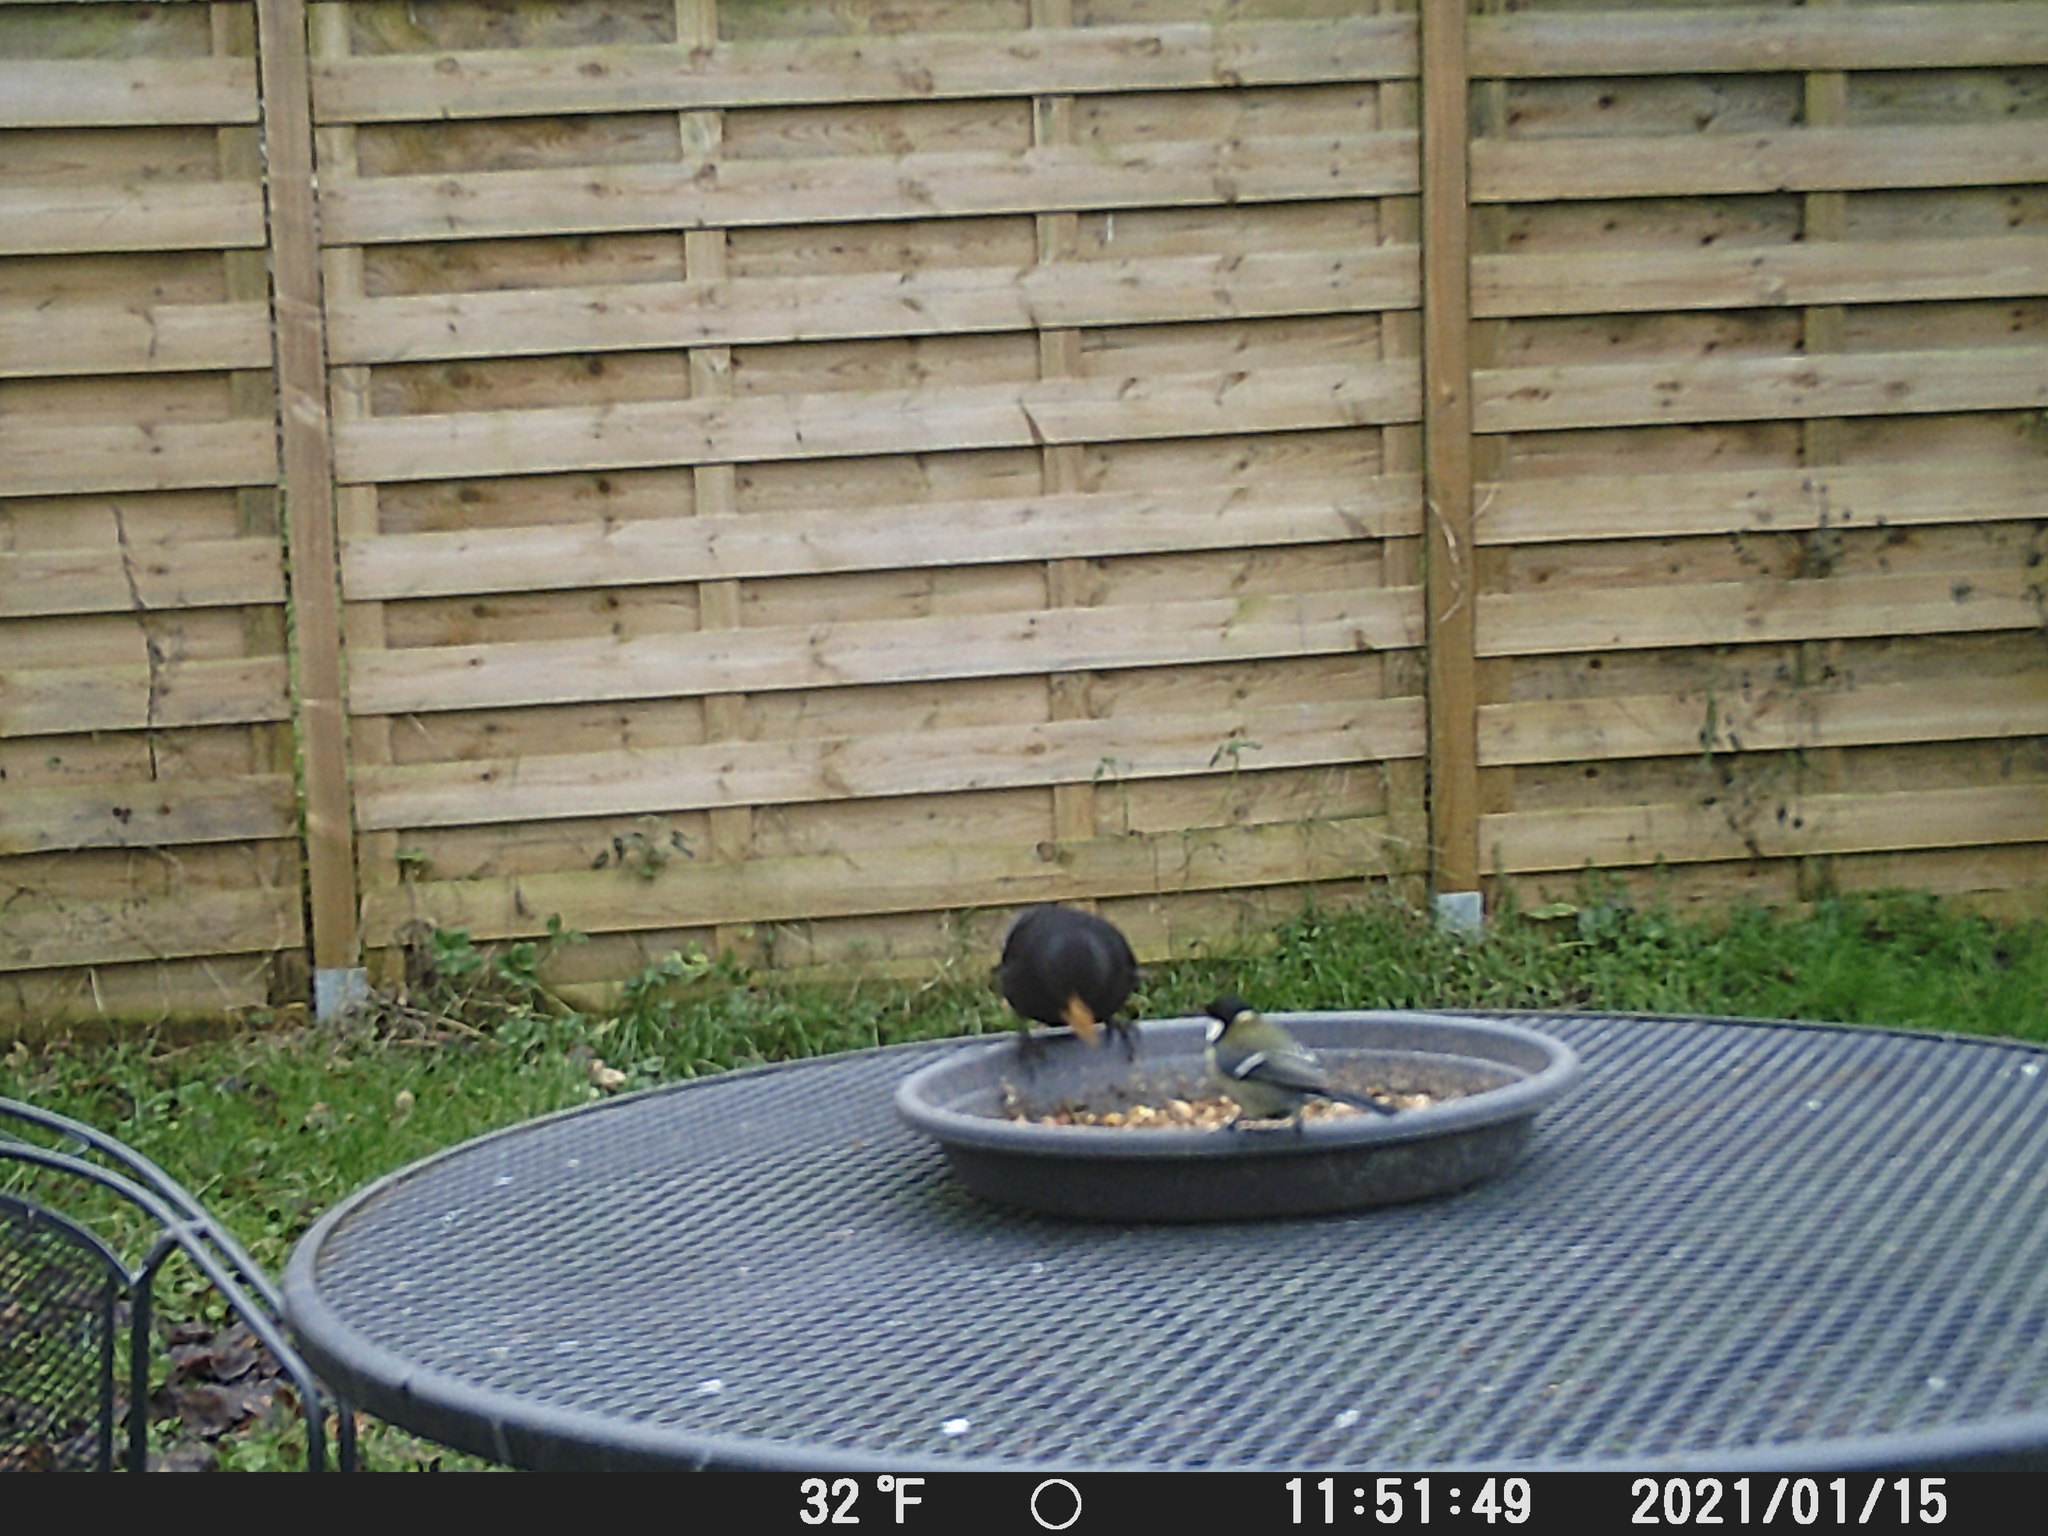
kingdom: Animalia
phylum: Chordata
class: Aves
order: Passeriformes
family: Paridae
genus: Parus
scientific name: Parus major
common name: Great tit
